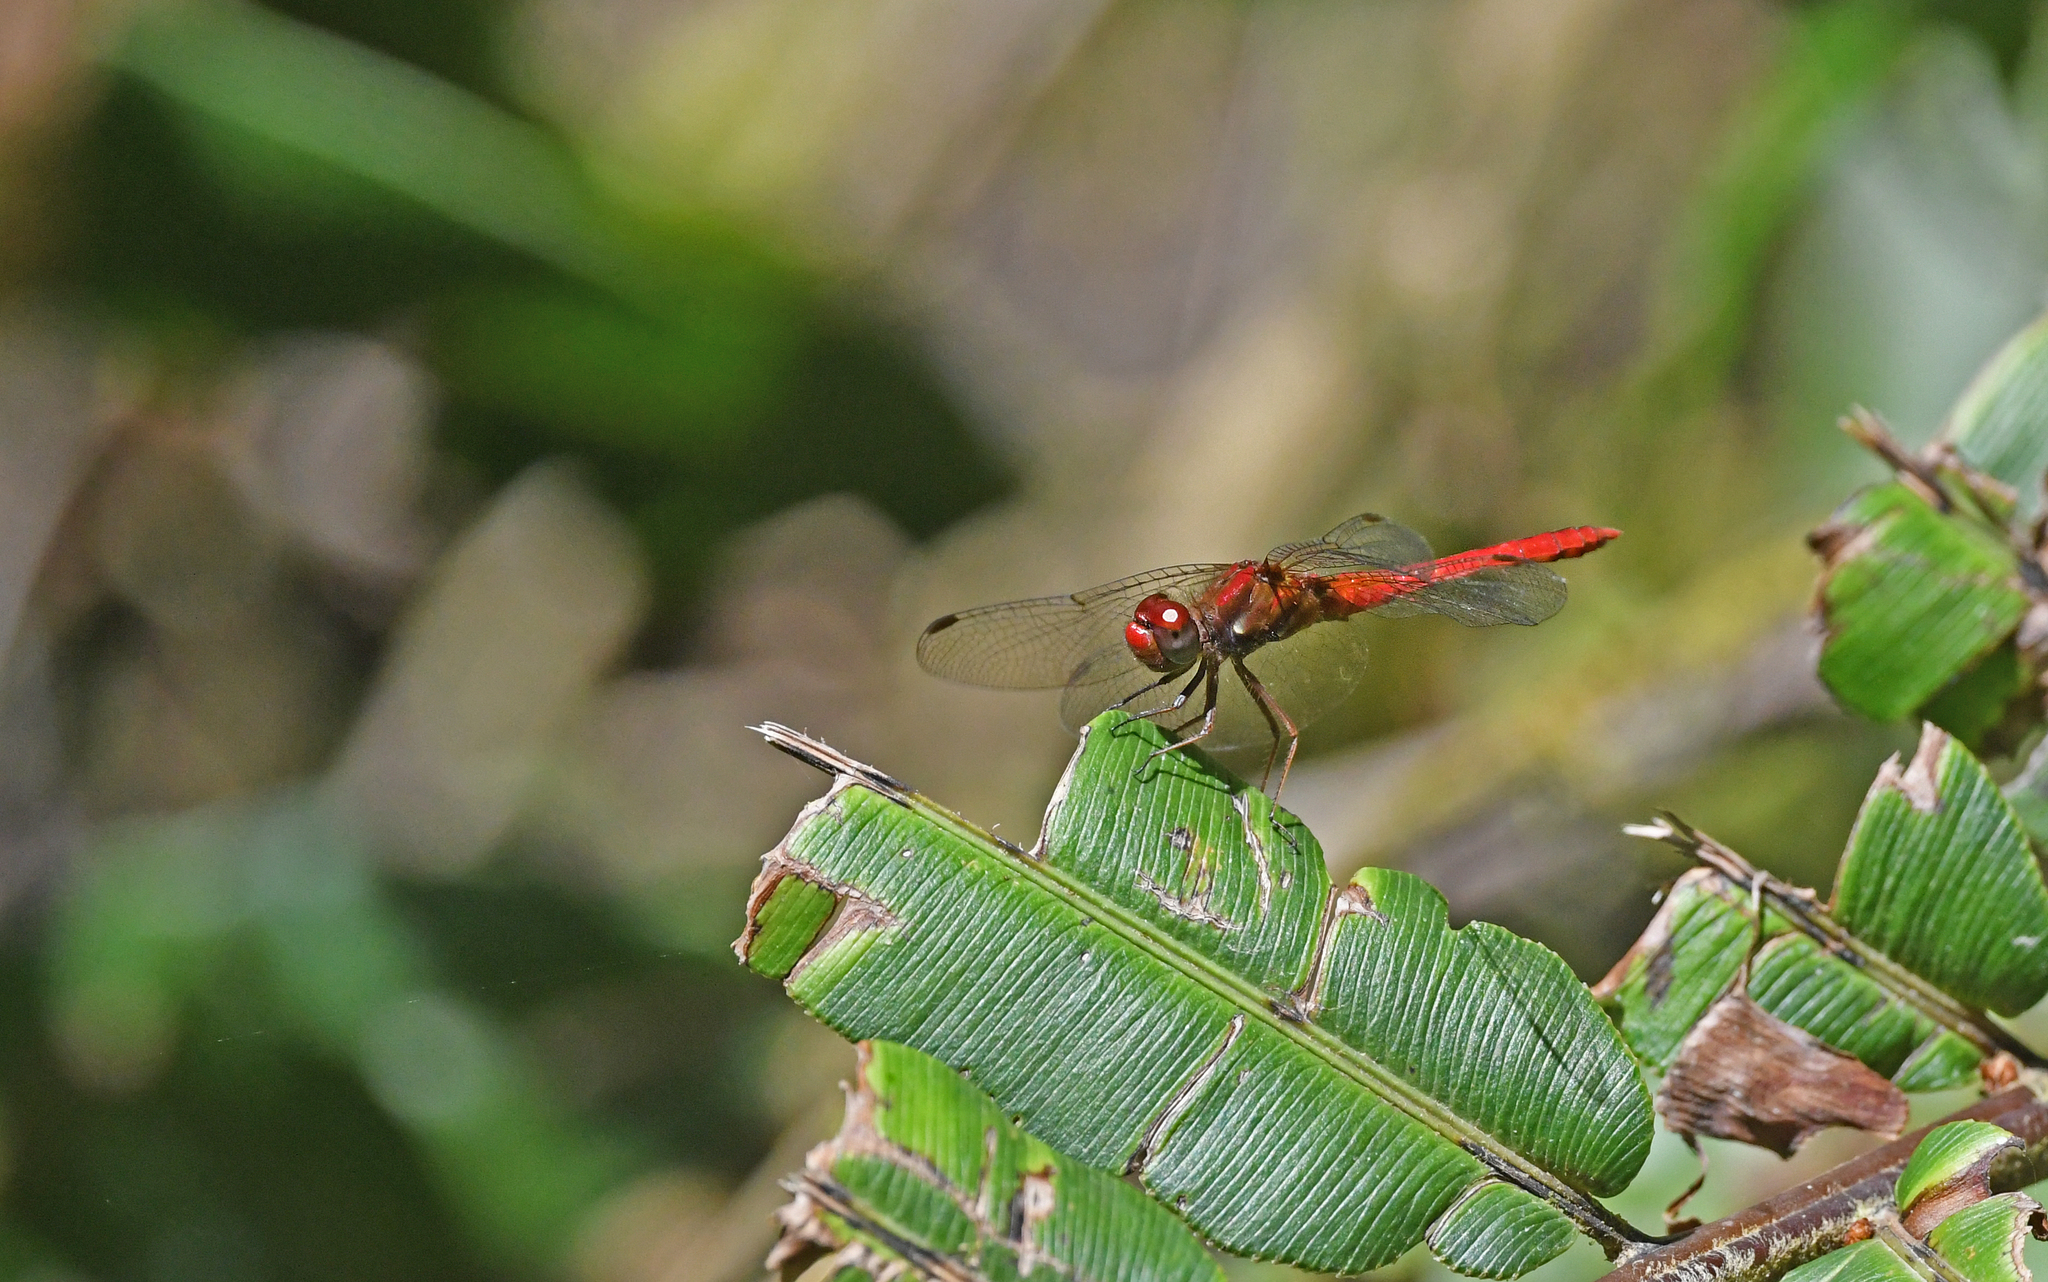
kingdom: Animalia
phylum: Arthropoda
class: Insecta
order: Odonata
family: Libellulidae
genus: Sympetrum
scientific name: Sympetrum gilvum
